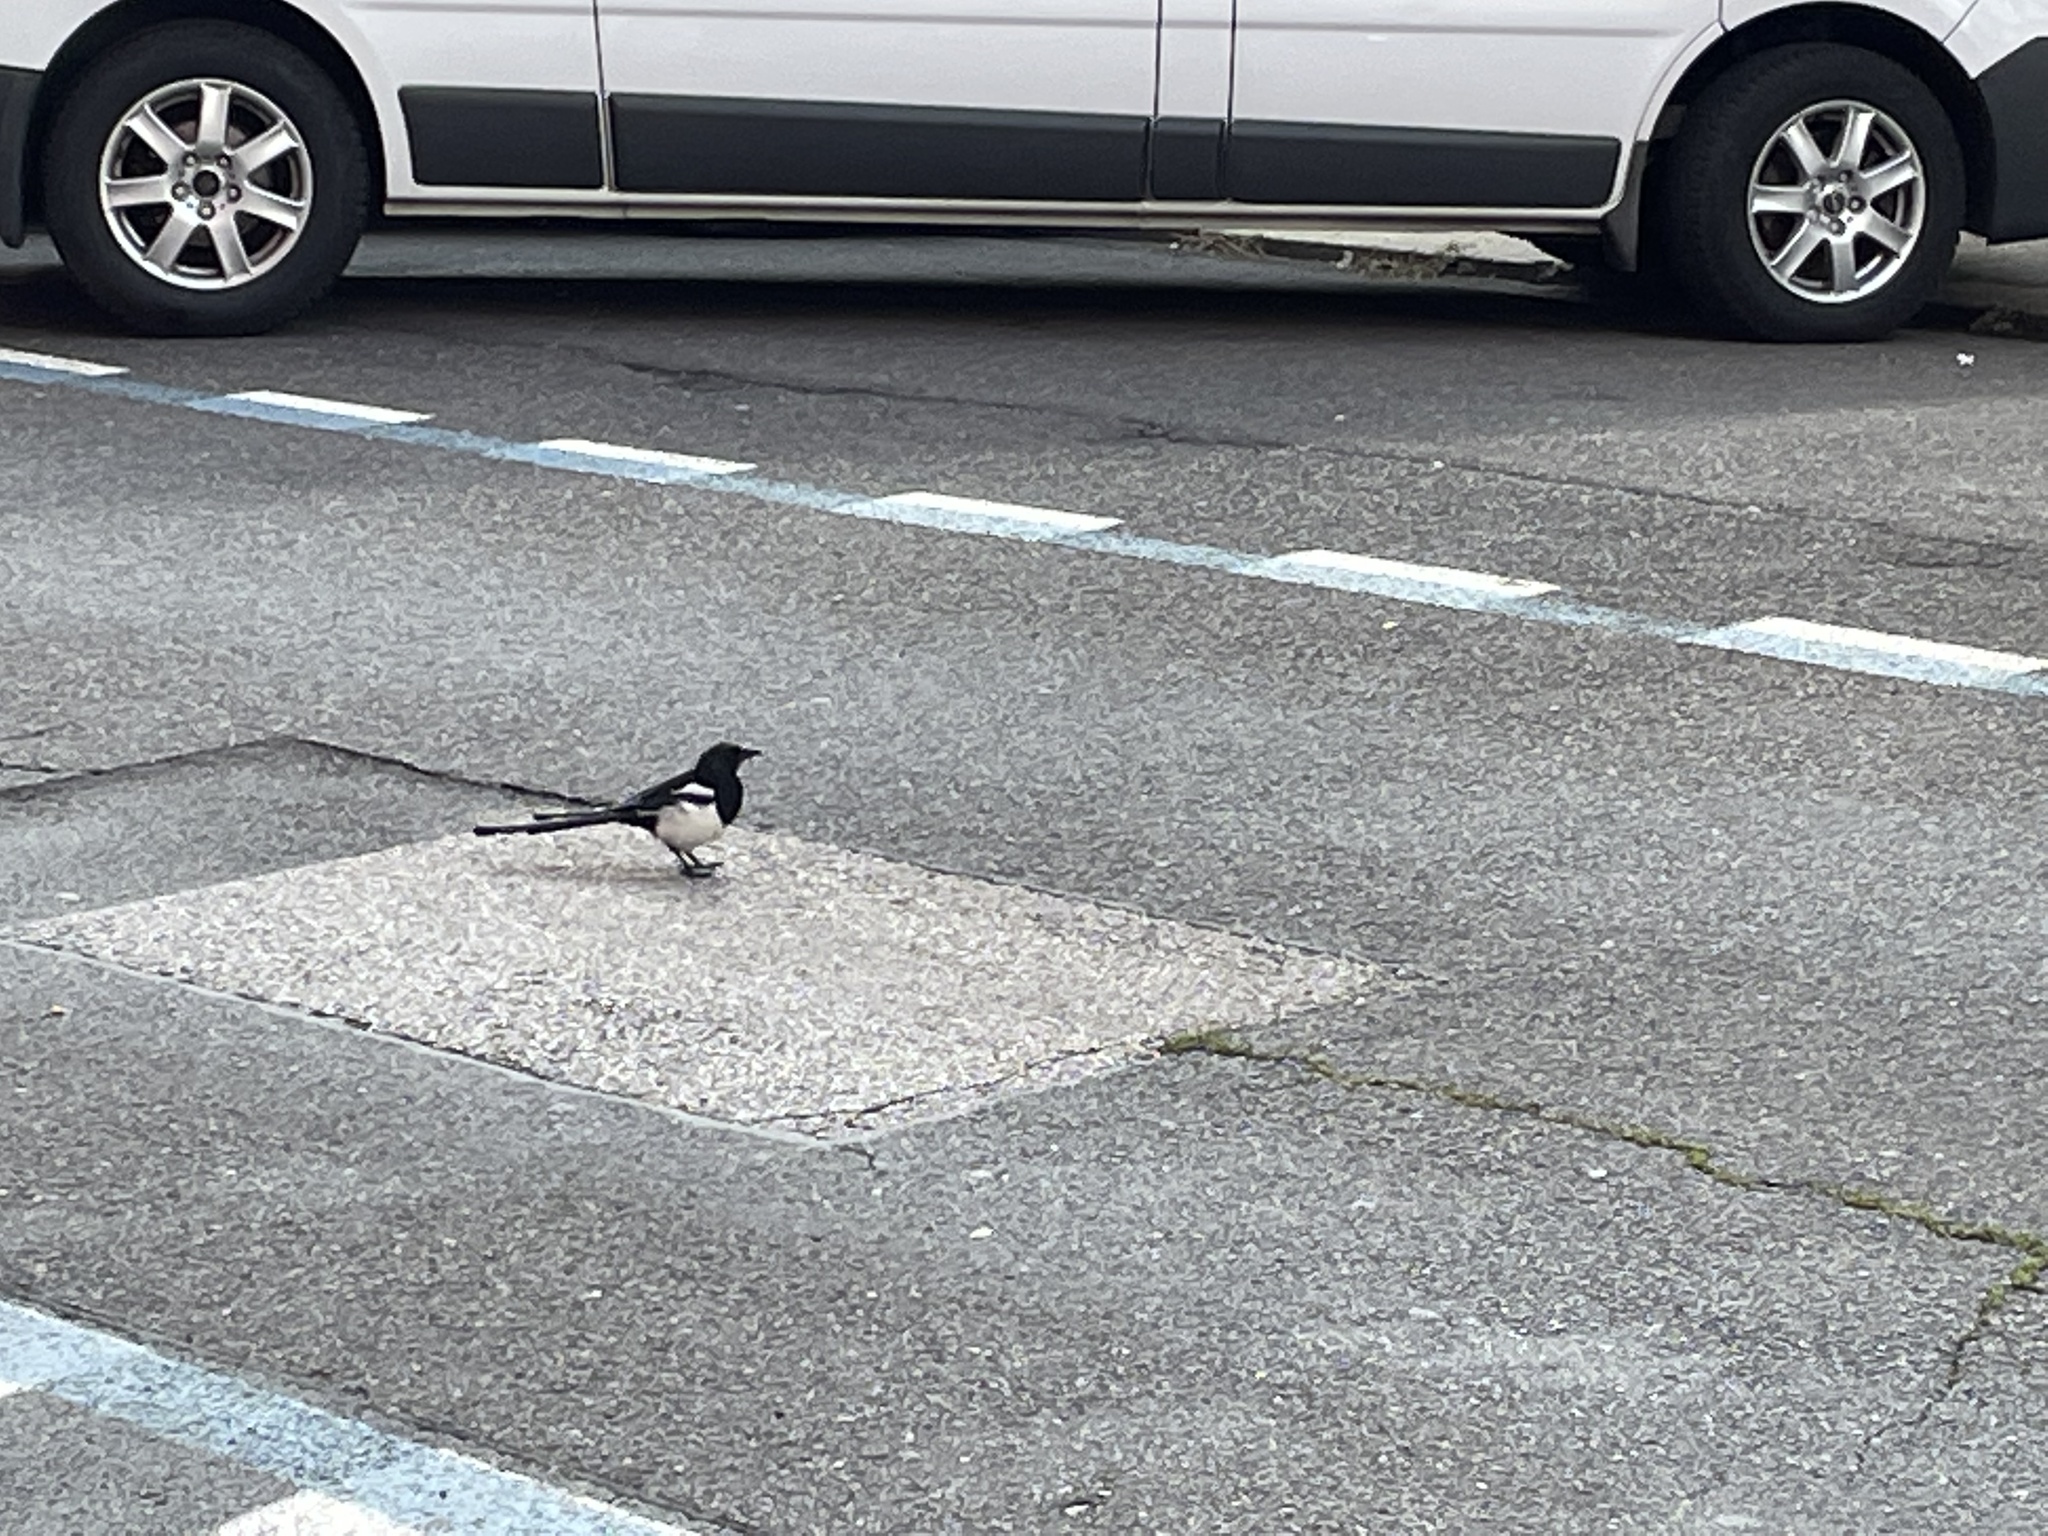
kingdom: Animalia
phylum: Chordata
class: Aves
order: Passeriformes
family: Corvidae
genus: Pica
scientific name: Pica pica
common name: Eurasian magpie
